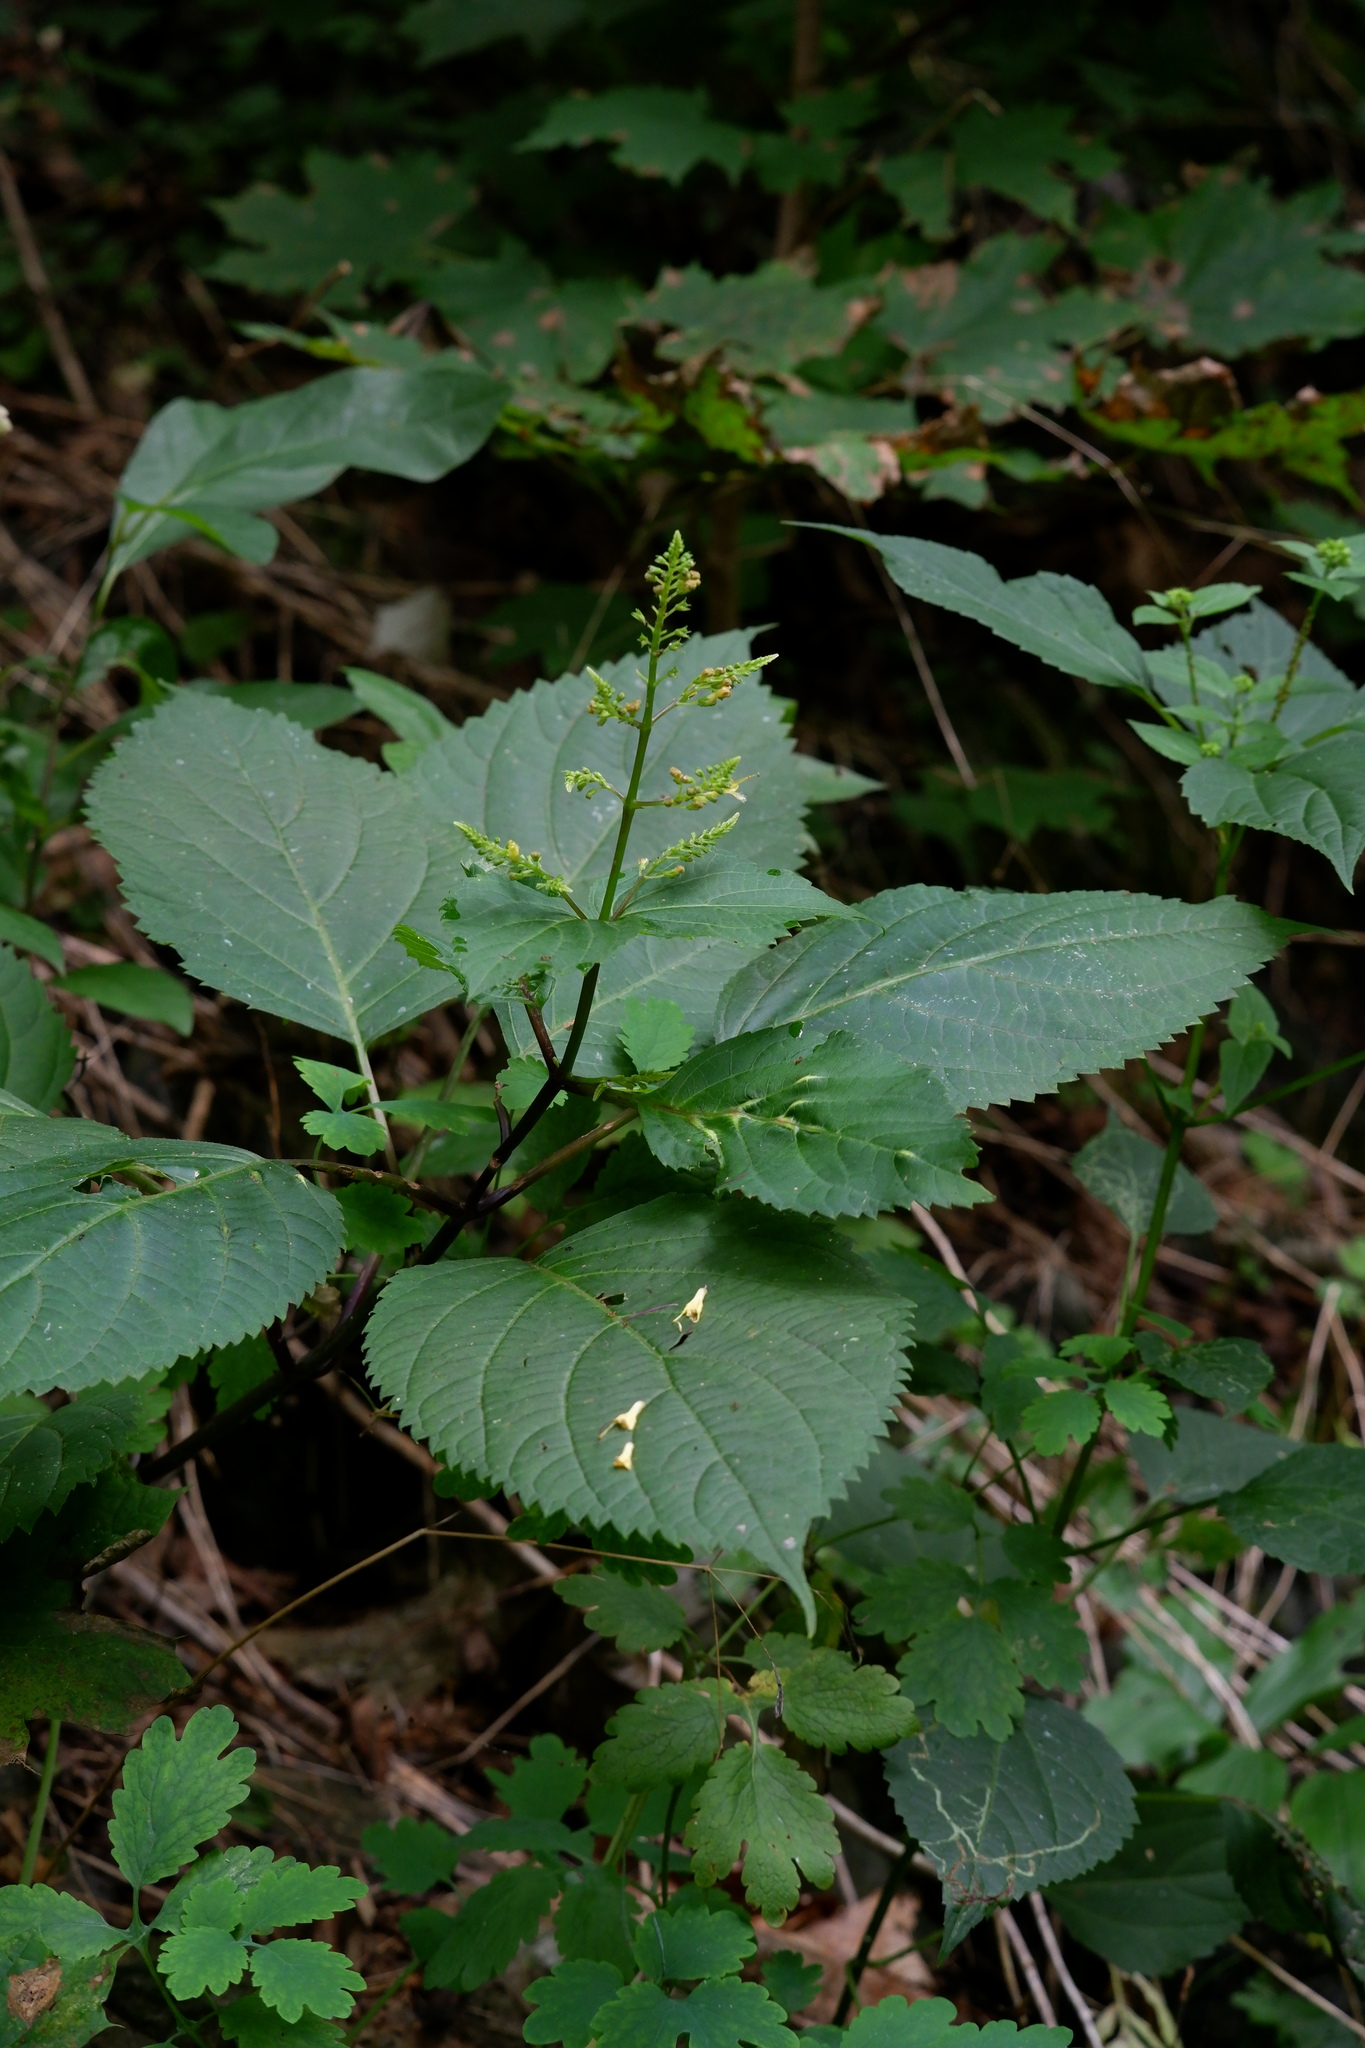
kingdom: Plantae
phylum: Tracheophyta
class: Magnoliopsida
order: Lamiales
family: Lamiaceae
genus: Collinsonia
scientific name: Collinsonia canadensis
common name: Northern horsebalm
